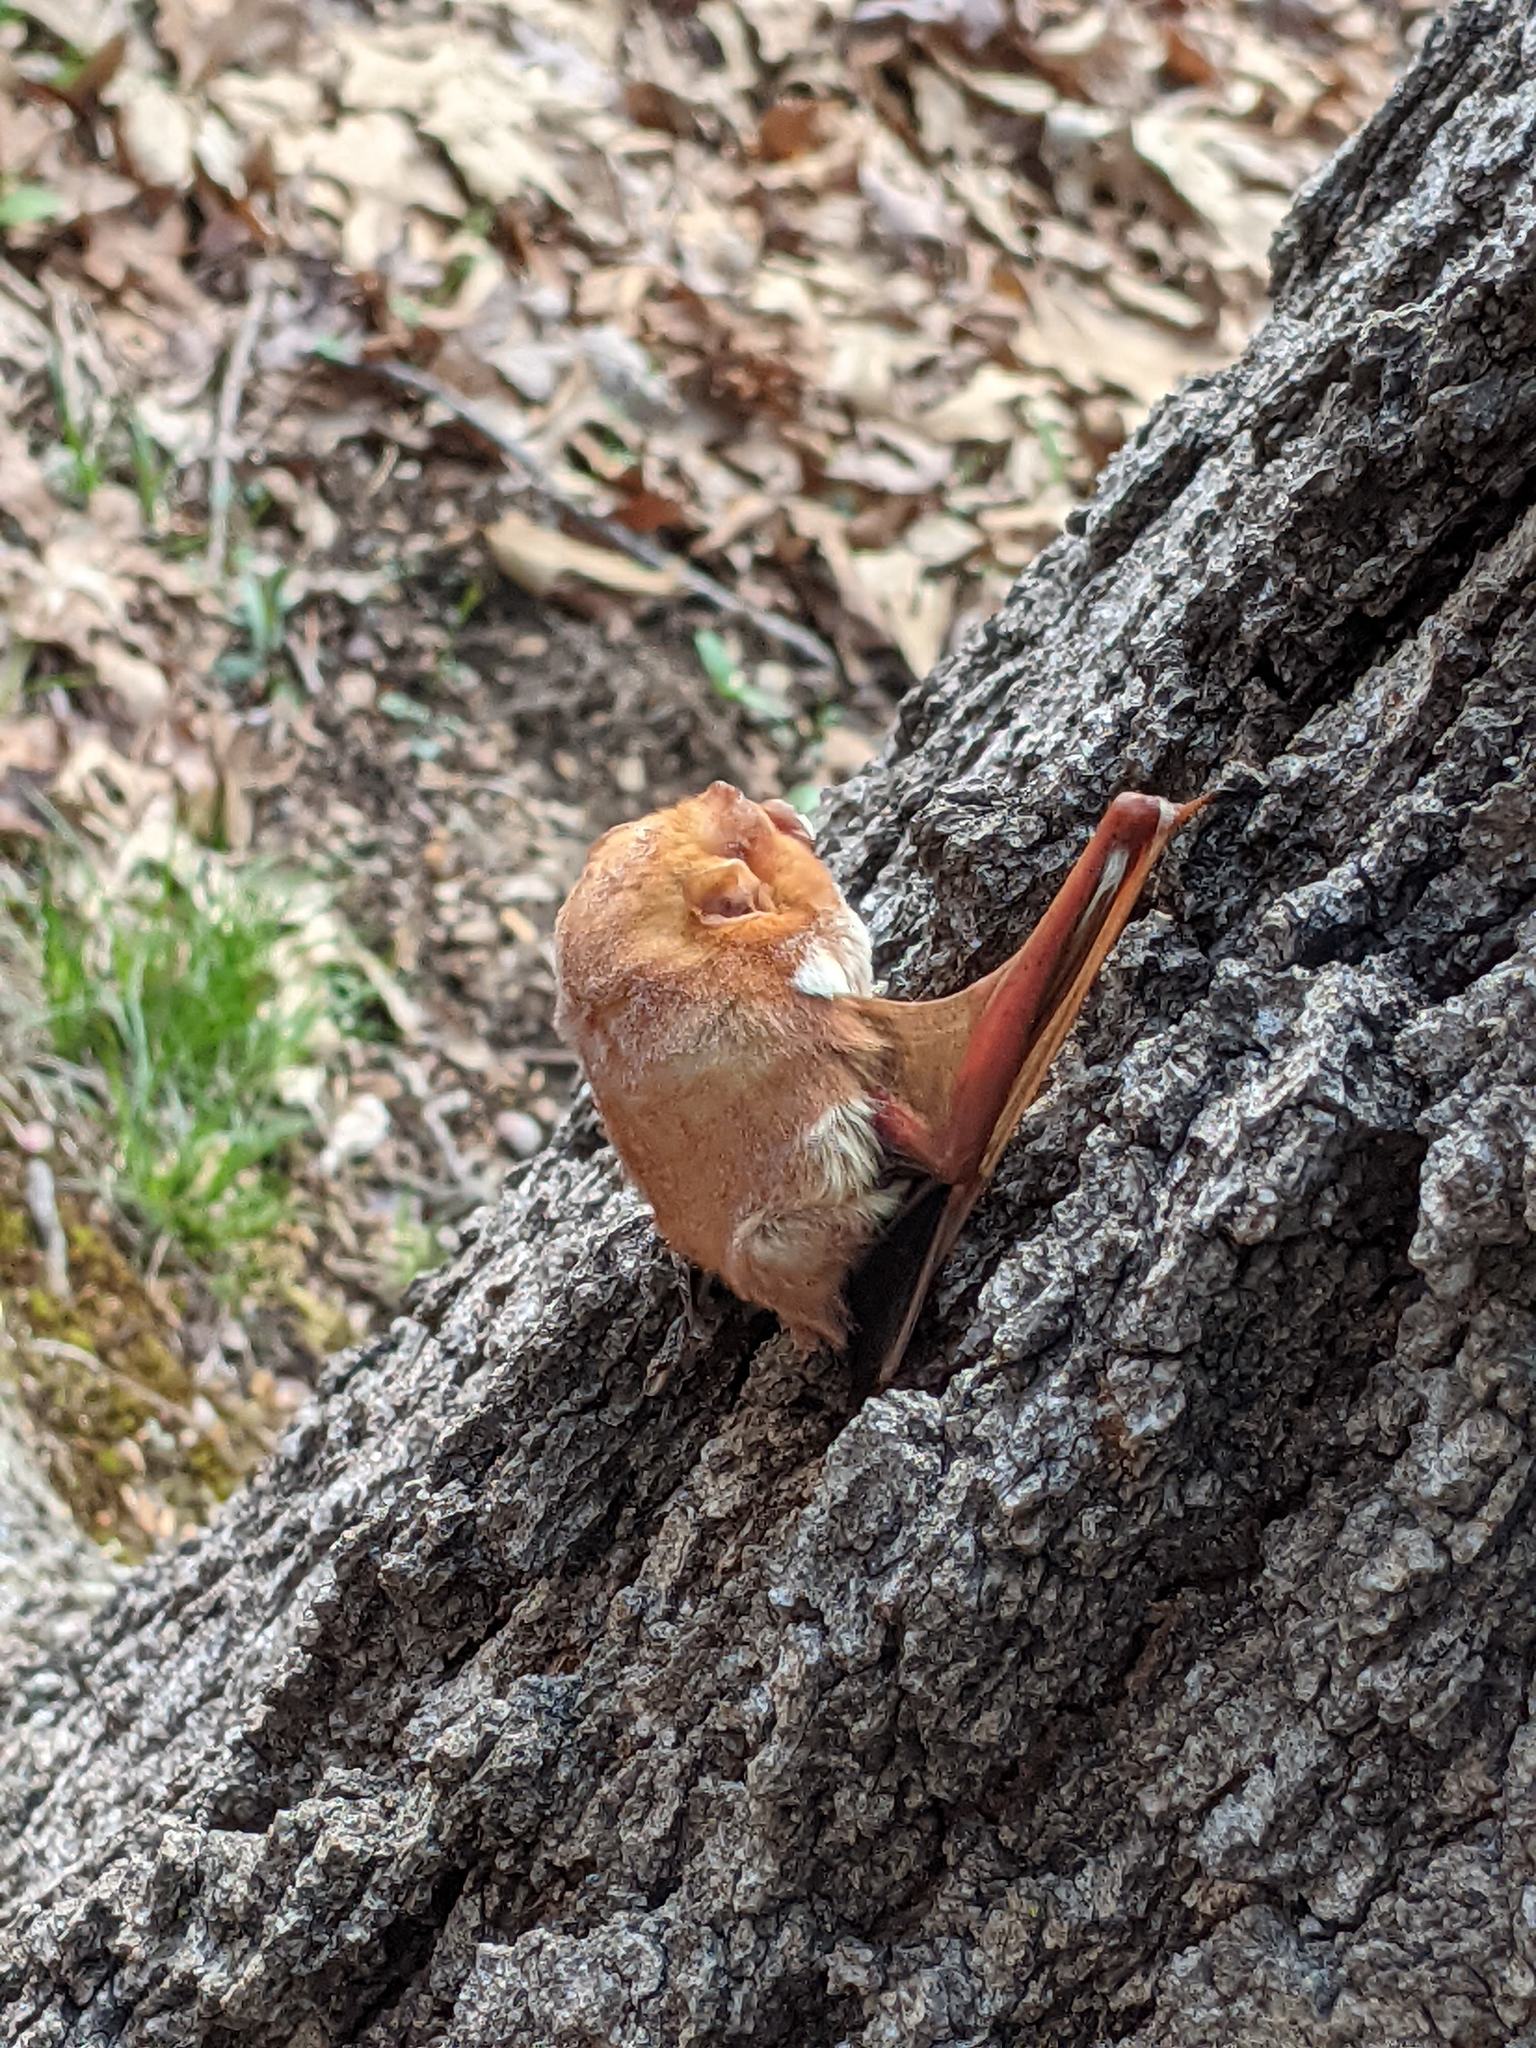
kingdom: Animalia
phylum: Chordata
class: Mammalia
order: Chiroptera
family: Vespertilionidae
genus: Lasiurus
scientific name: Lasiurus borealis
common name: Eastern red bat
